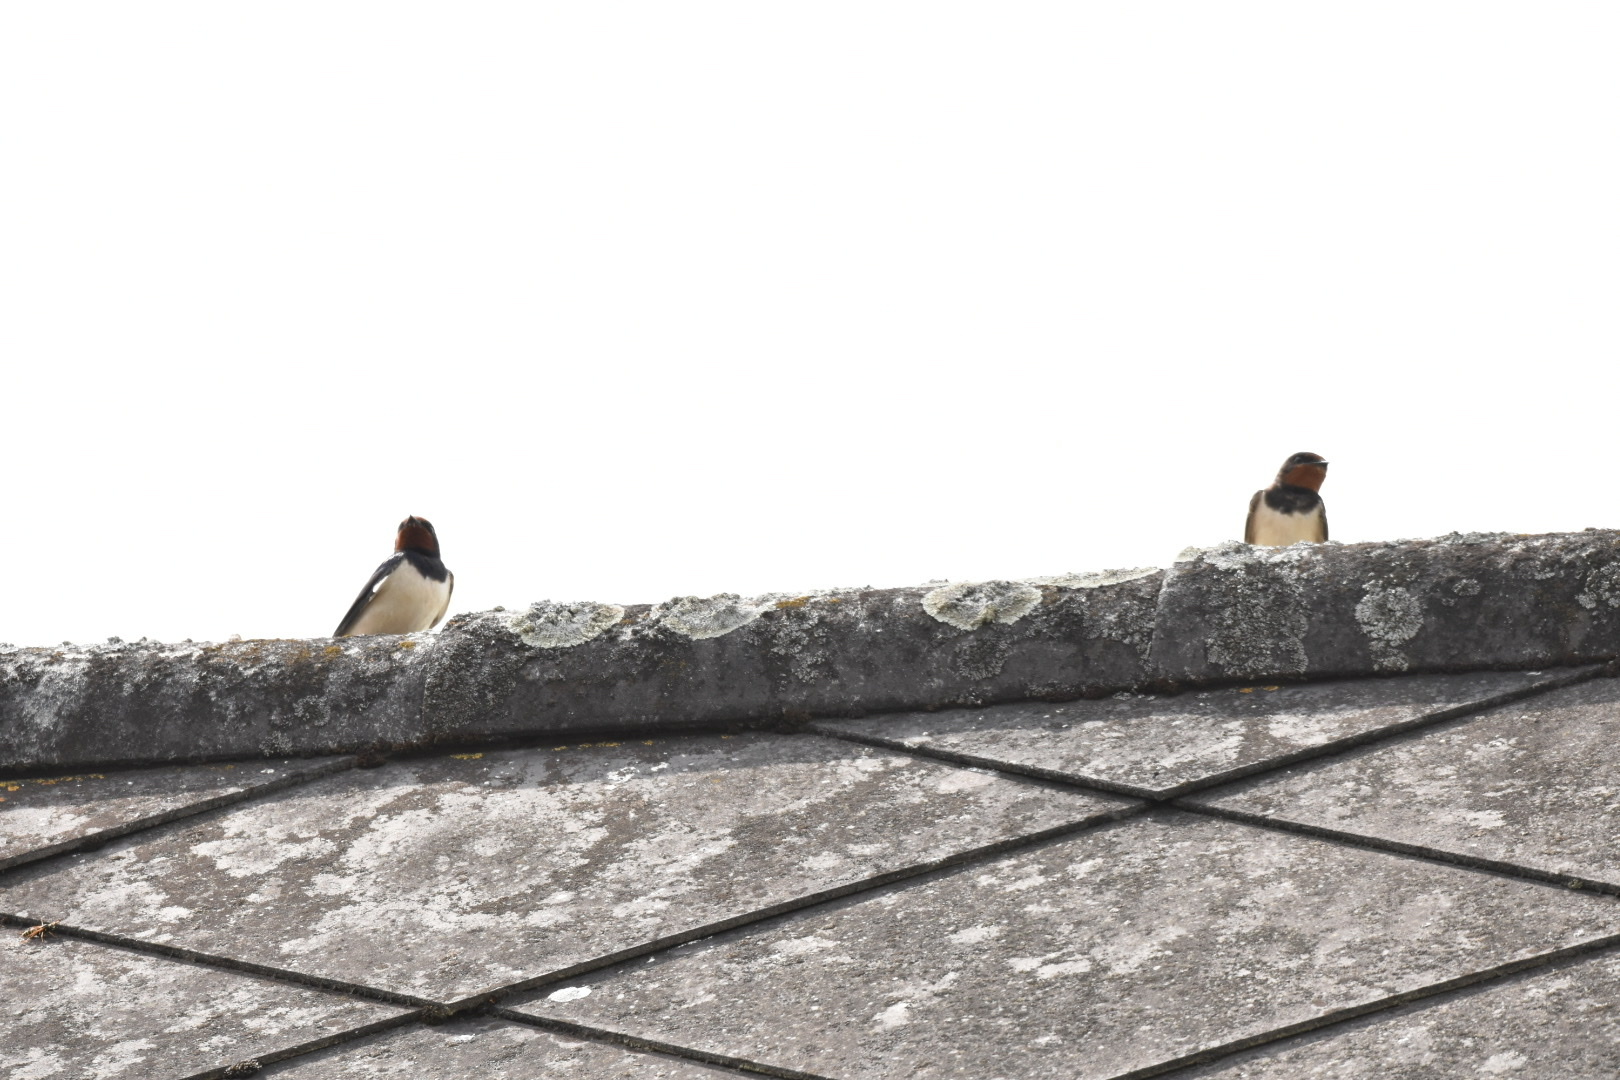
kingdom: Animalia
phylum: Chordata
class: Aves
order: Passeriformes
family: Hirundinidae
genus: Hirundo
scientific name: Hirundo rustica
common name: Barn swallow
